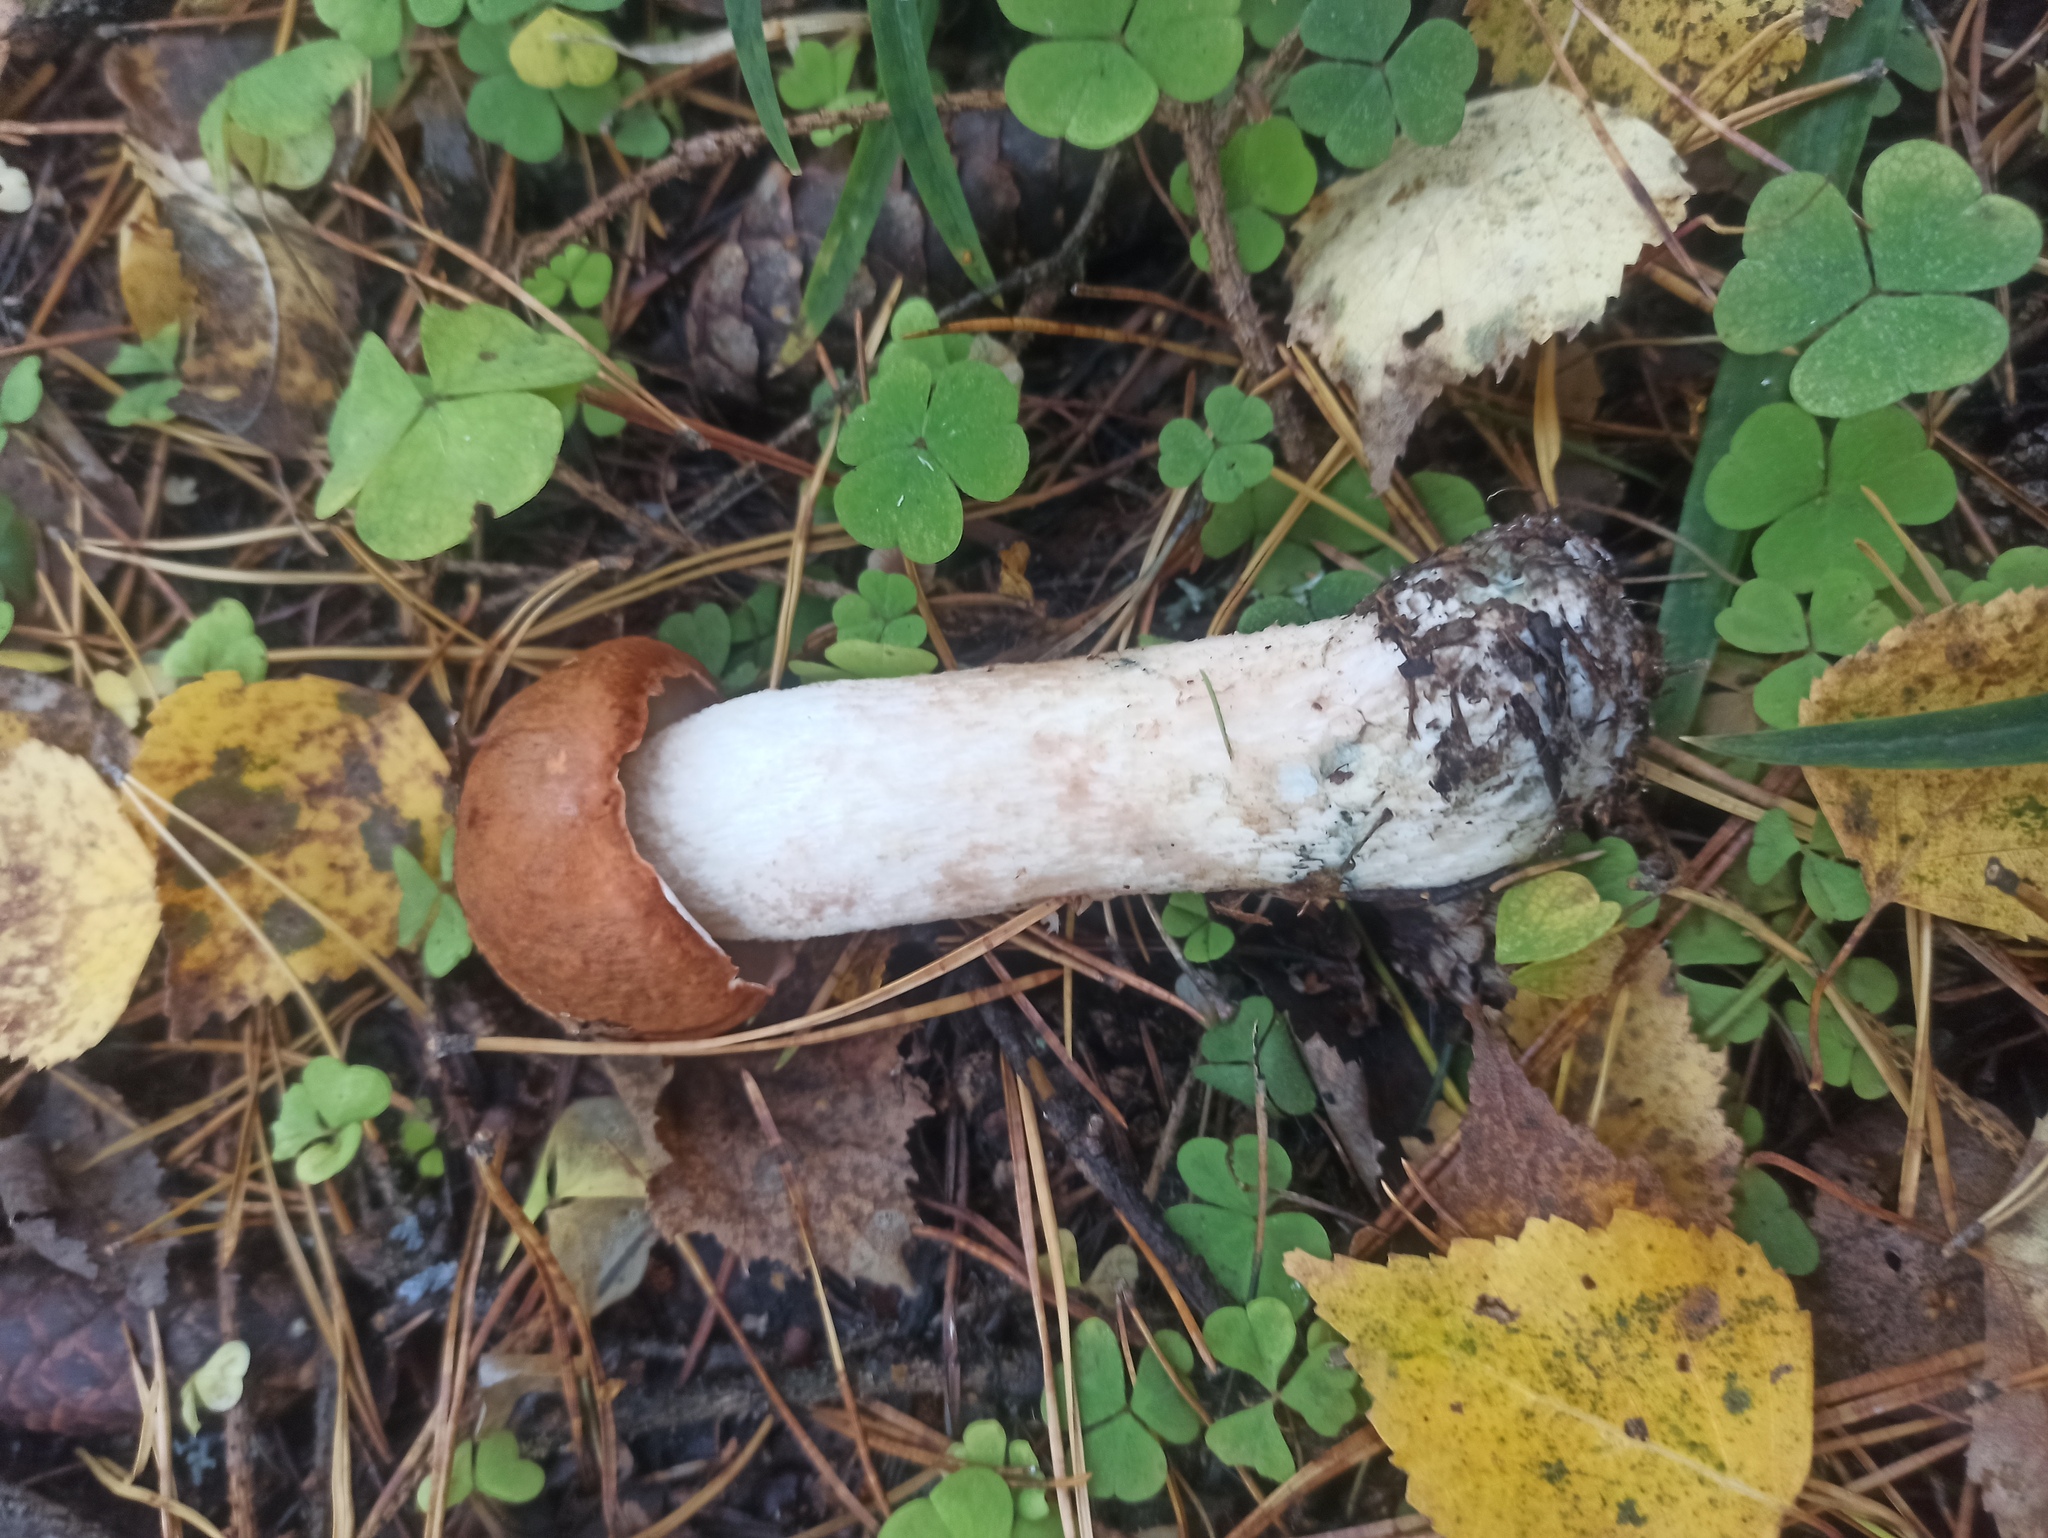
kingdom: Fungi
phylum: Basidiomycota
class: Agaricomycetes
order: Boletales
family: Boletaceae
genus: Leccinum
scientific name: Leccinum albostipitatum
